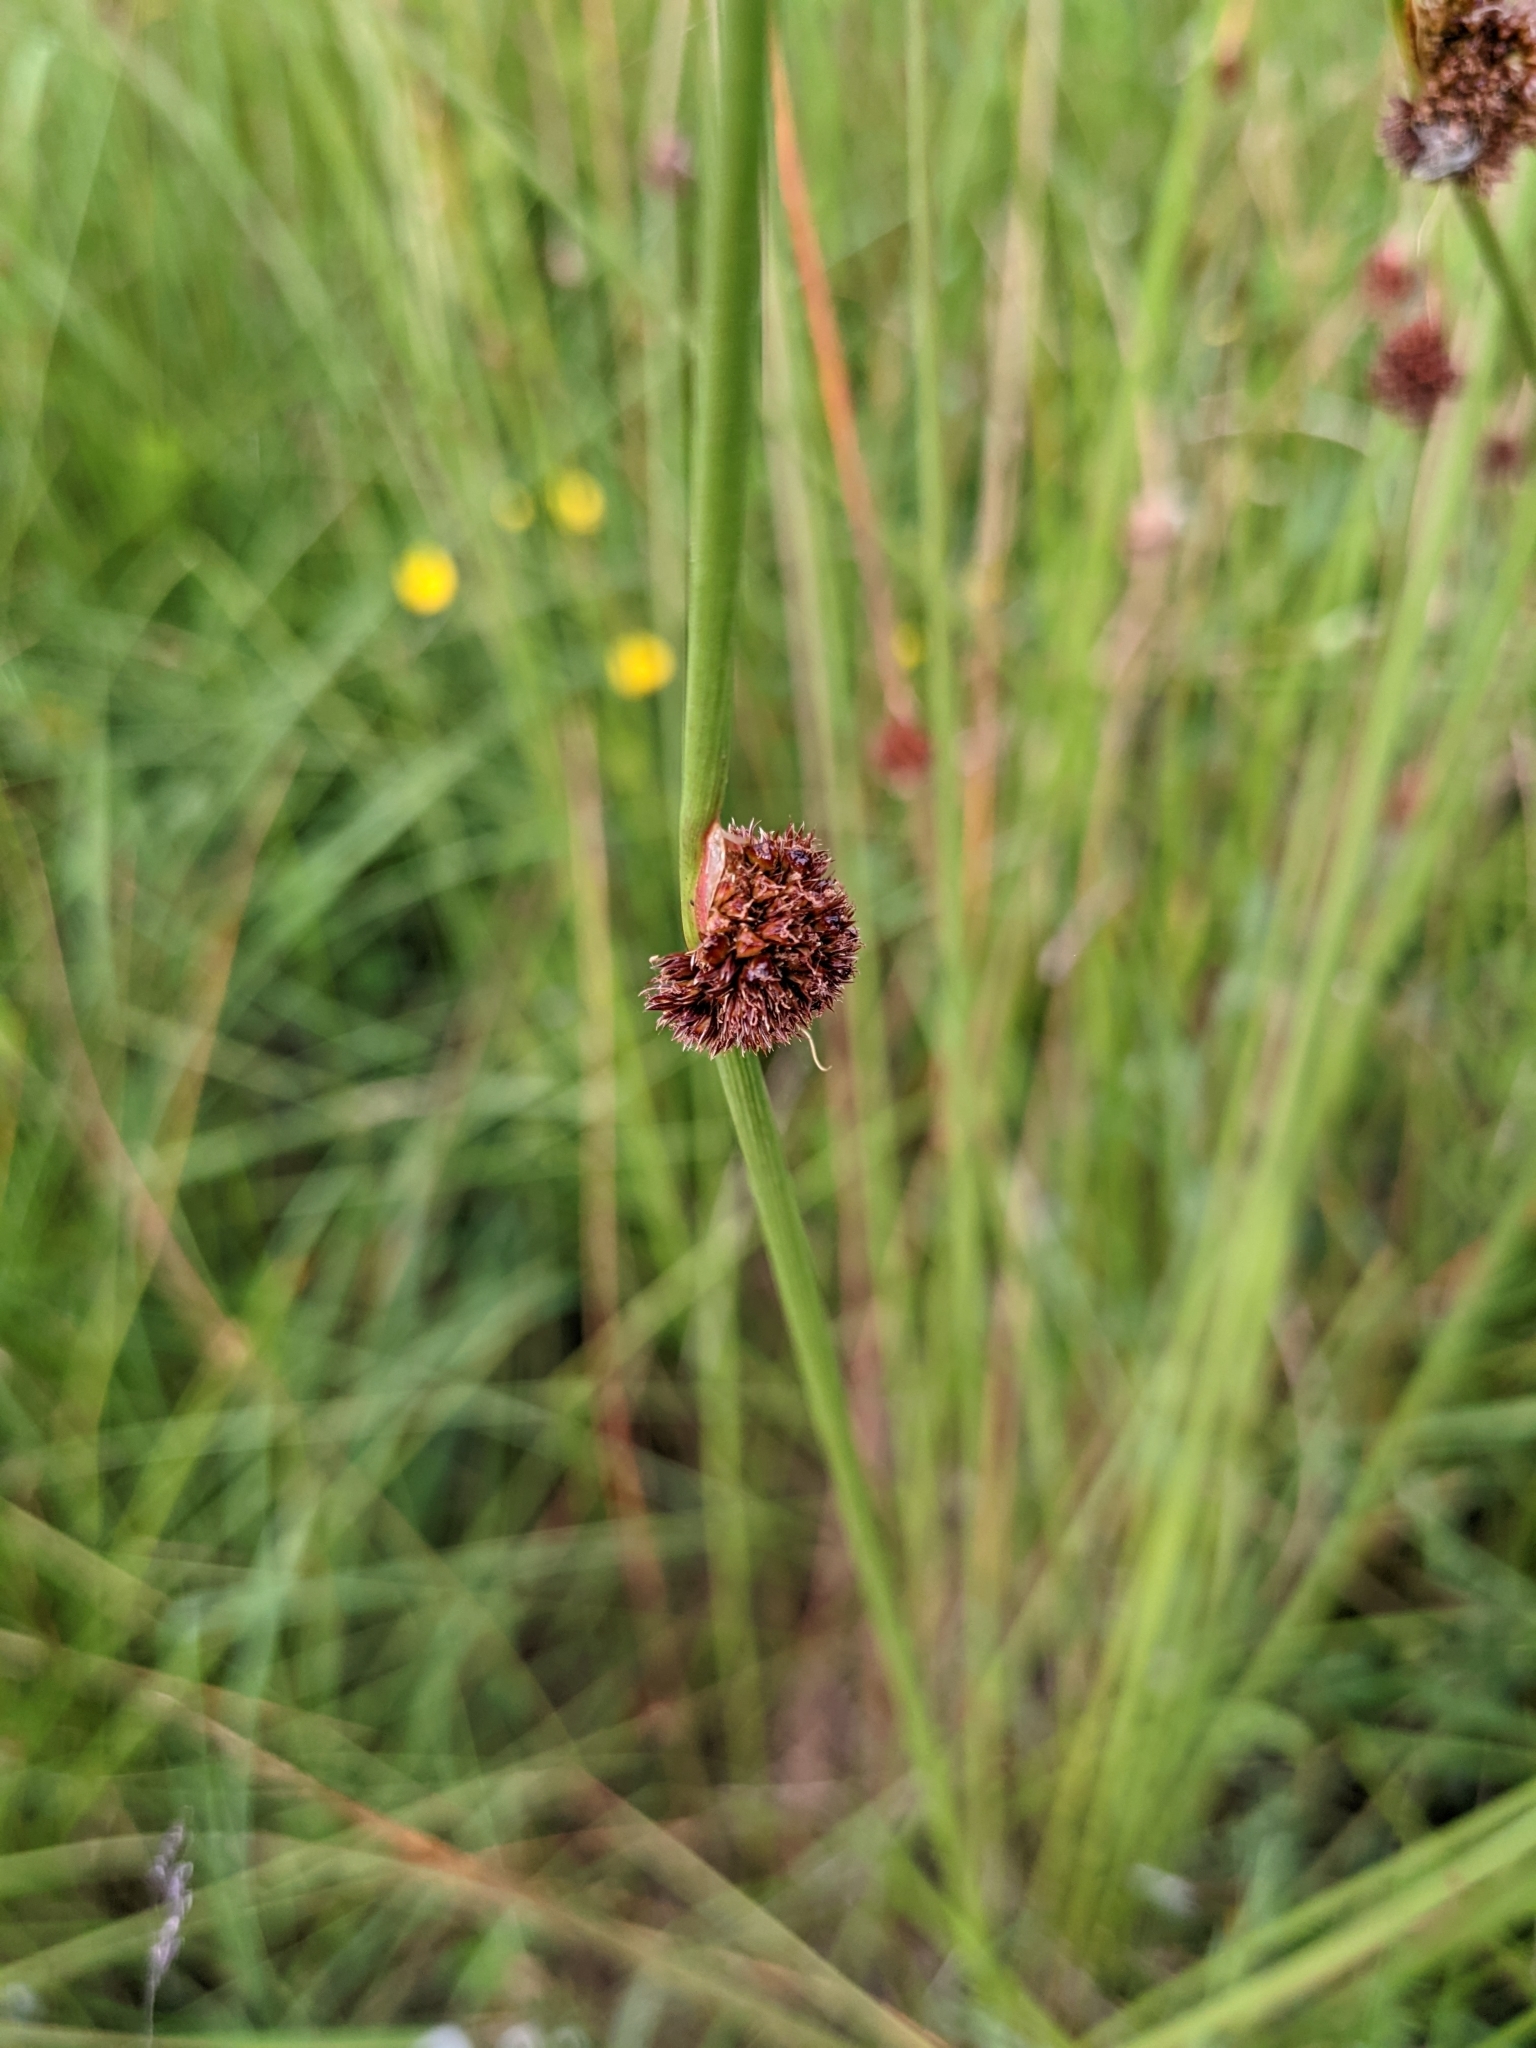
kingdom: Plantae
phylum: Tracheophyta
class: Liliopsida
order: Poales
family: Juncaceae
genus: Juncus
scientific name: Juncus conglomeratus
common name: Compact rush
